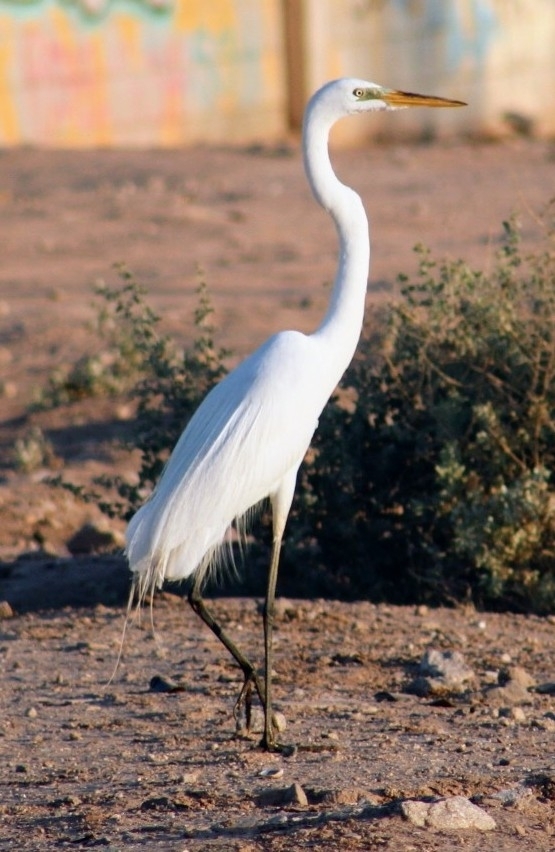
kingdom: Animalia
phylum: Chordata
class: Aves
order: Pelecaniformes
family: Ardeidae
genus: Ardea
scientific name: Ardea alba
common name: Great egret
